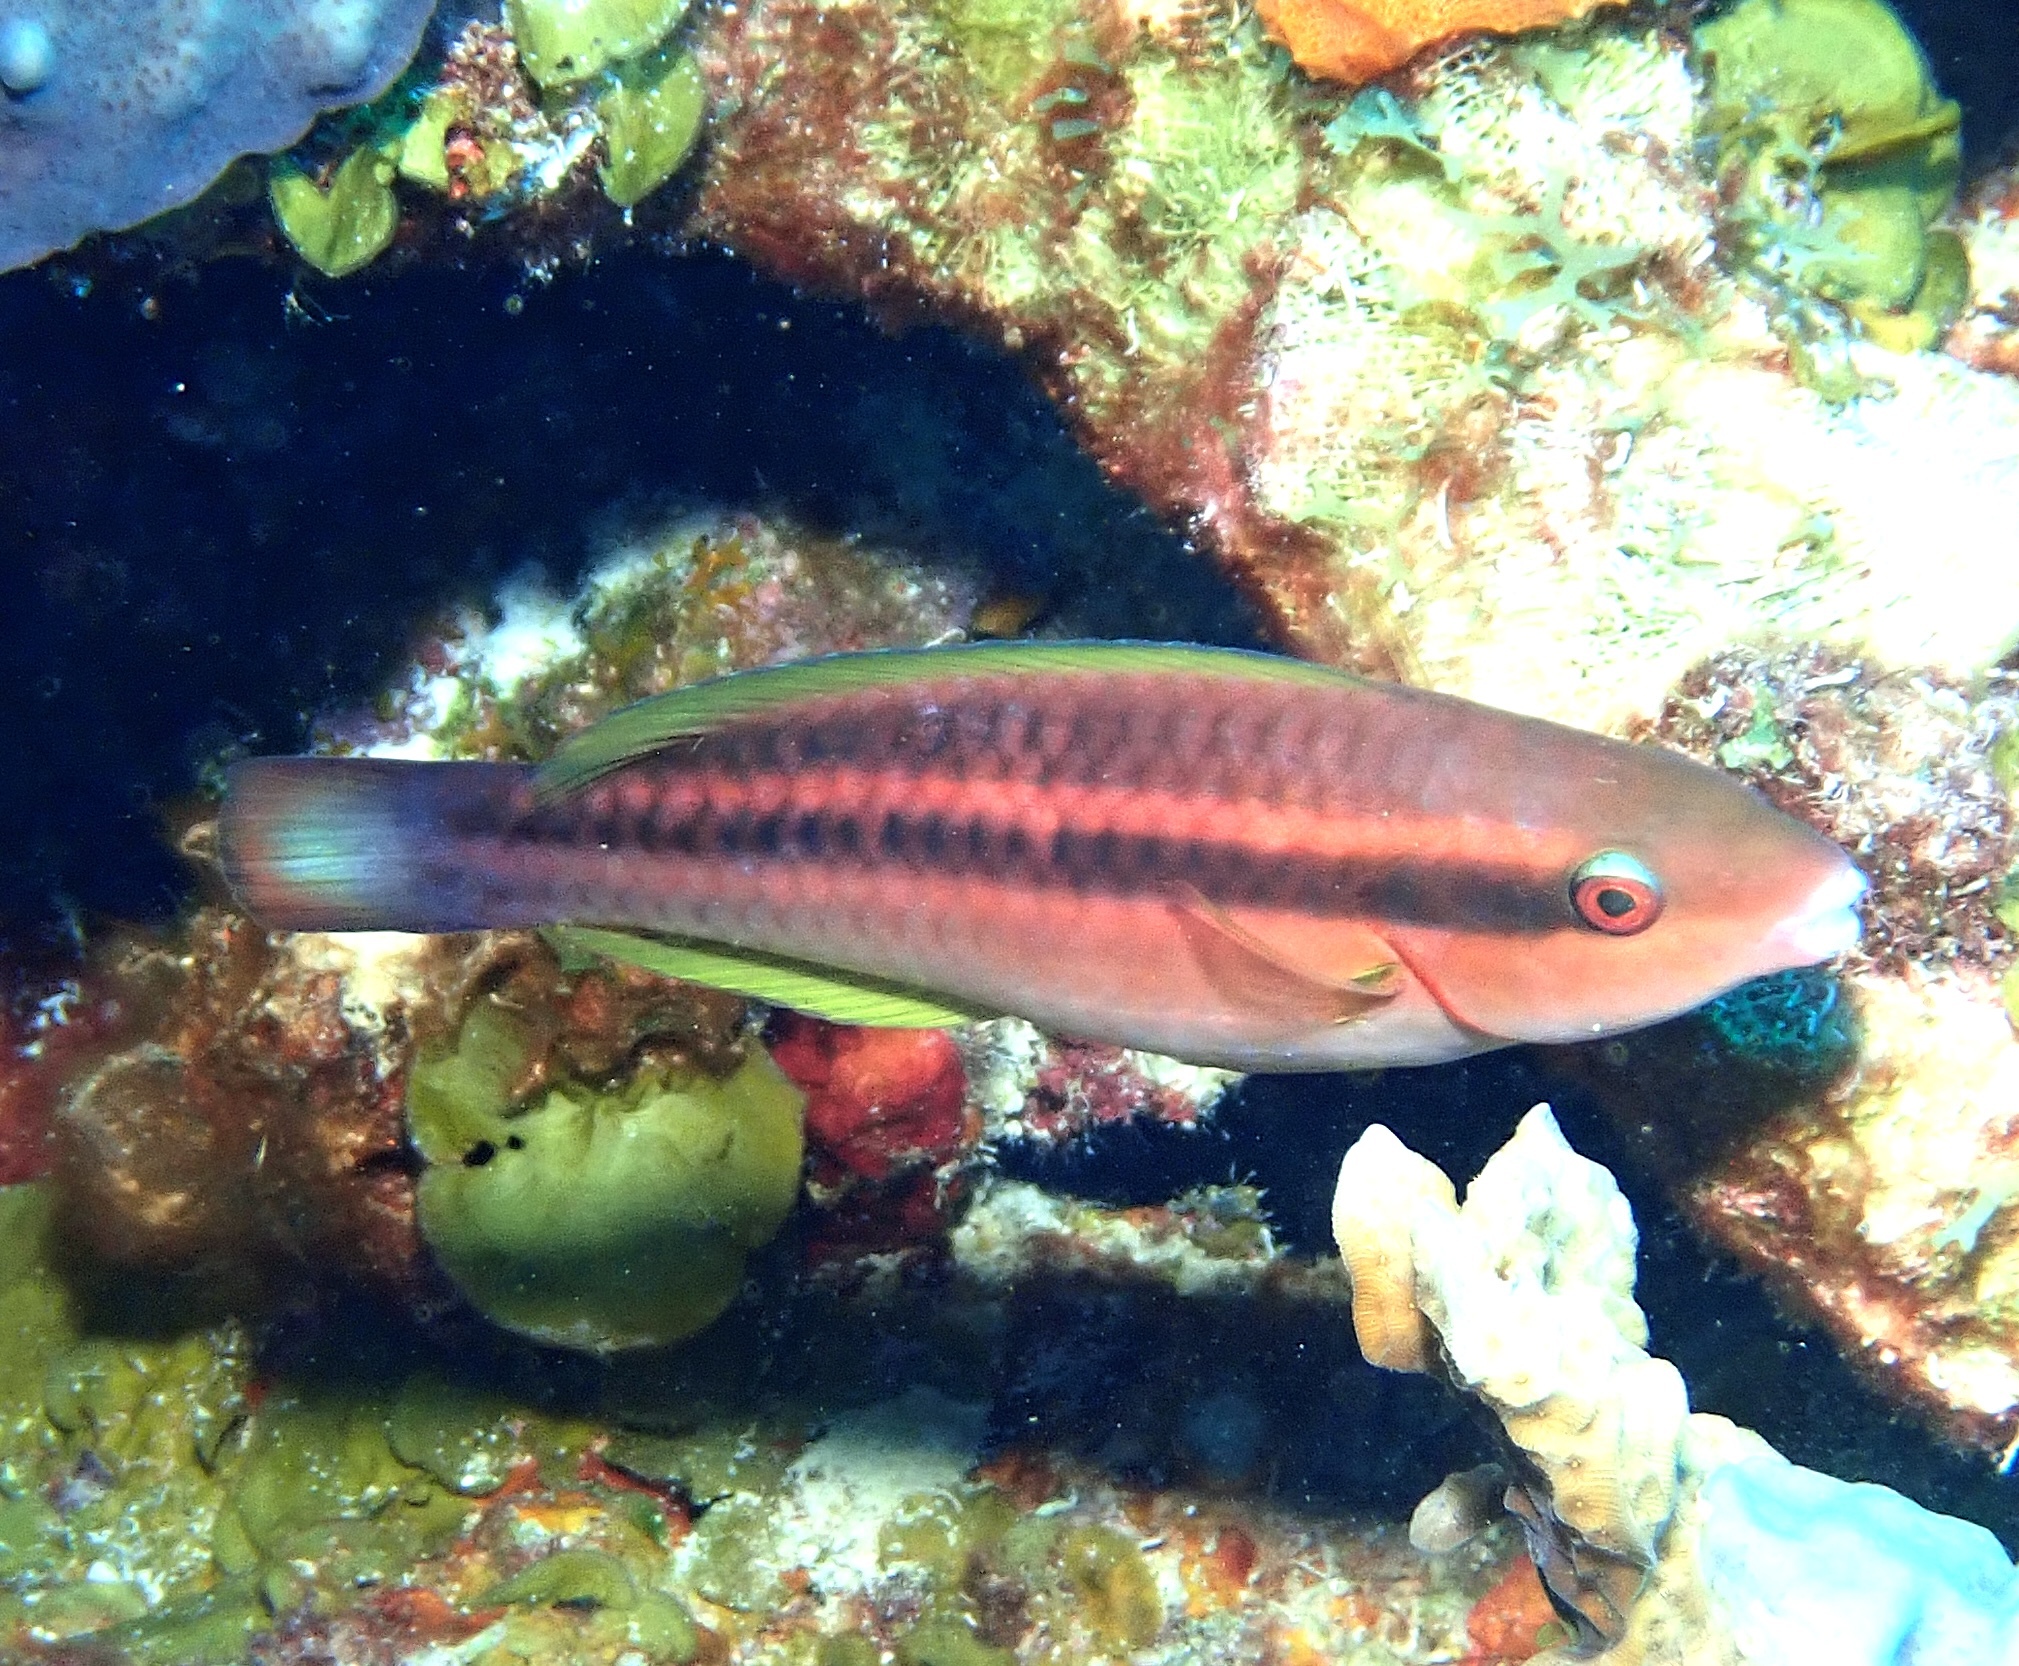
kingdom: Animalia
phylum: Chordata
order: Perciformes
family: Scaridae
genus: Scarus
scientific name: Scarus iseri
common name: Striped parrotfish
